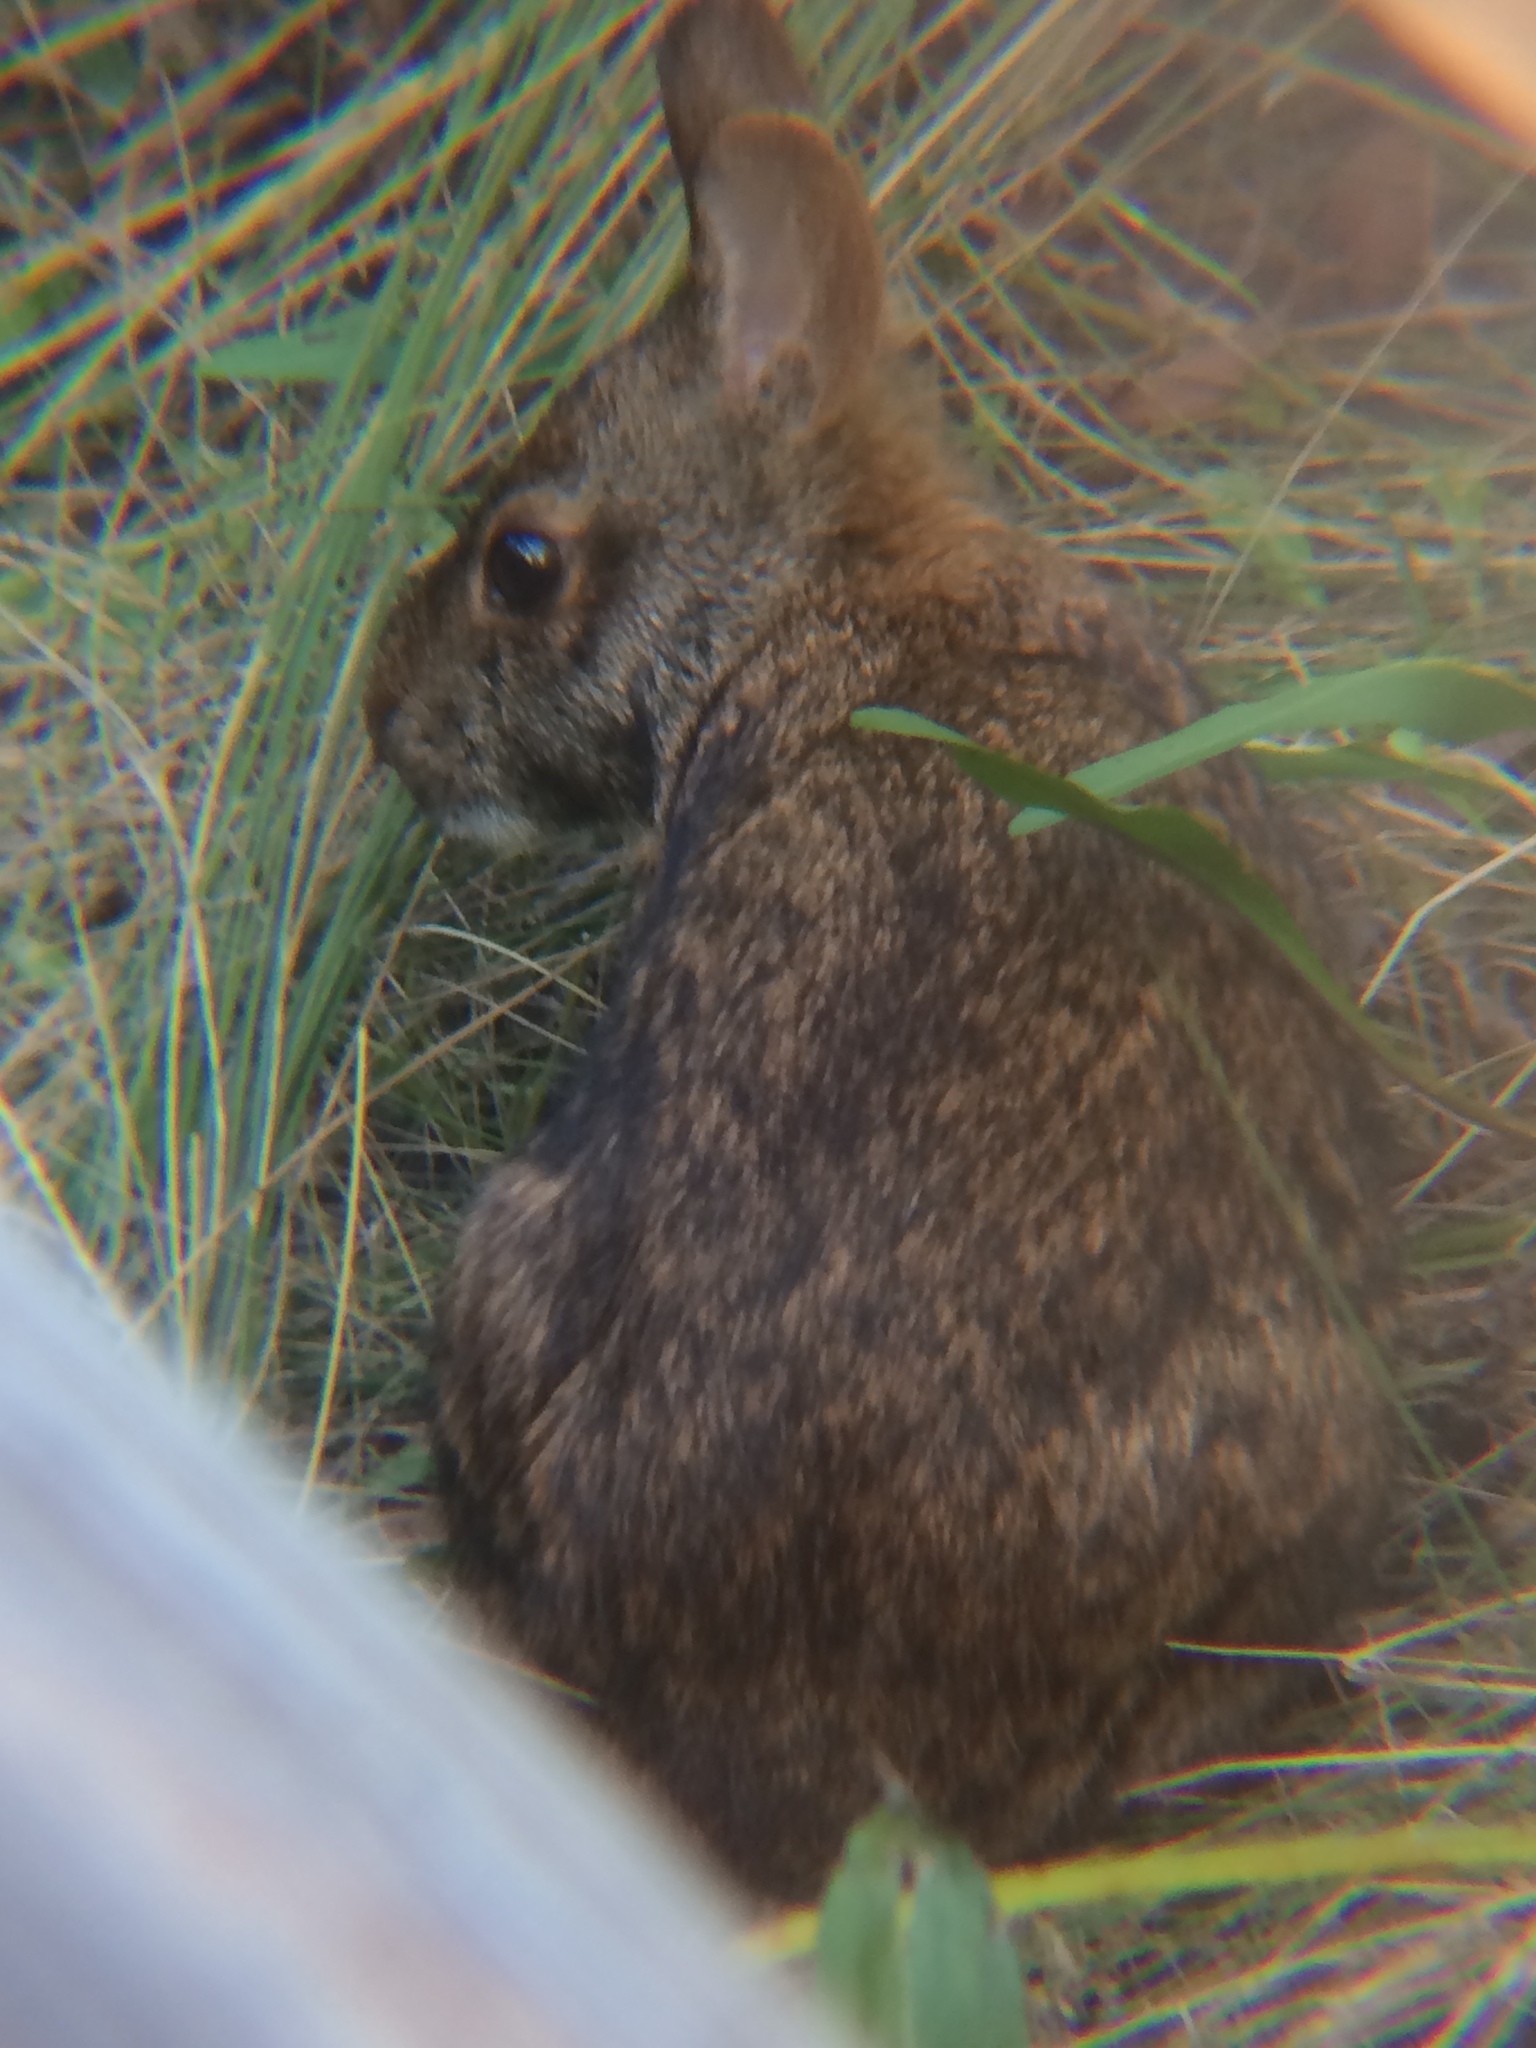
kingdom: Animalia
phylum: Chordata
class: Mammalia
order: Lagomorpha
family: Leporidae
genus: Sylvilagus
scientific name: Sylvilagus palustris
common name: Marsh rabbit
